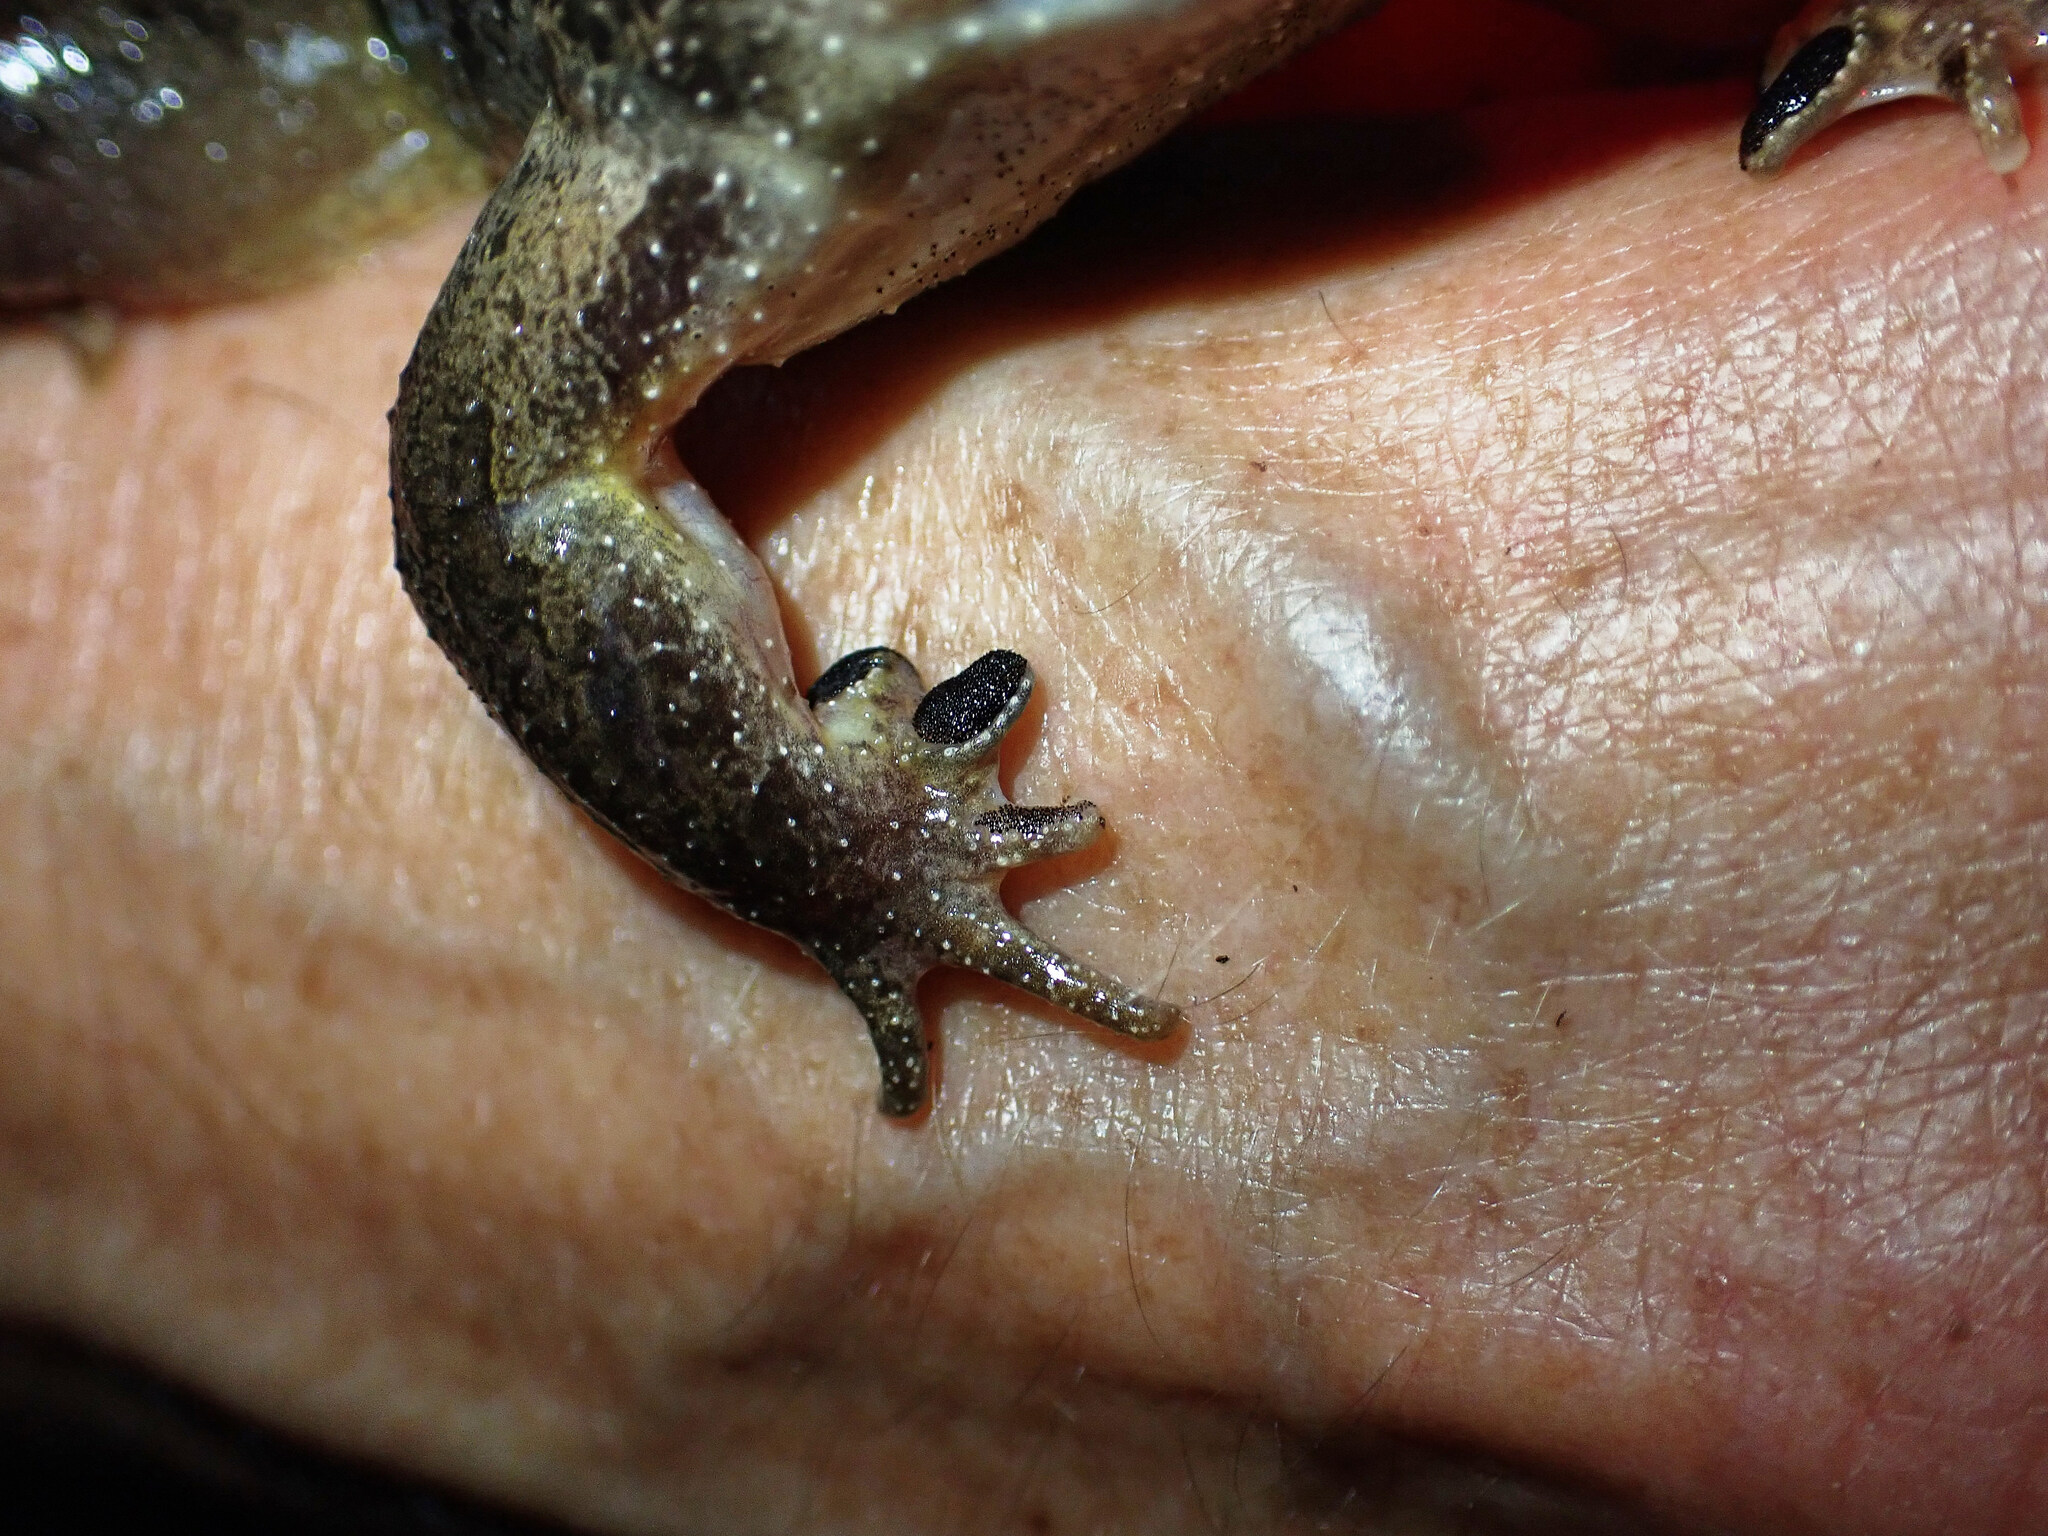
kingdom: Animalia
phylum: Chordata
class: Amphibia
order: Anura
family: Alytidae
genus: Discoglossus
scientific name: Discoglossus pictus
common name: Painted frog
